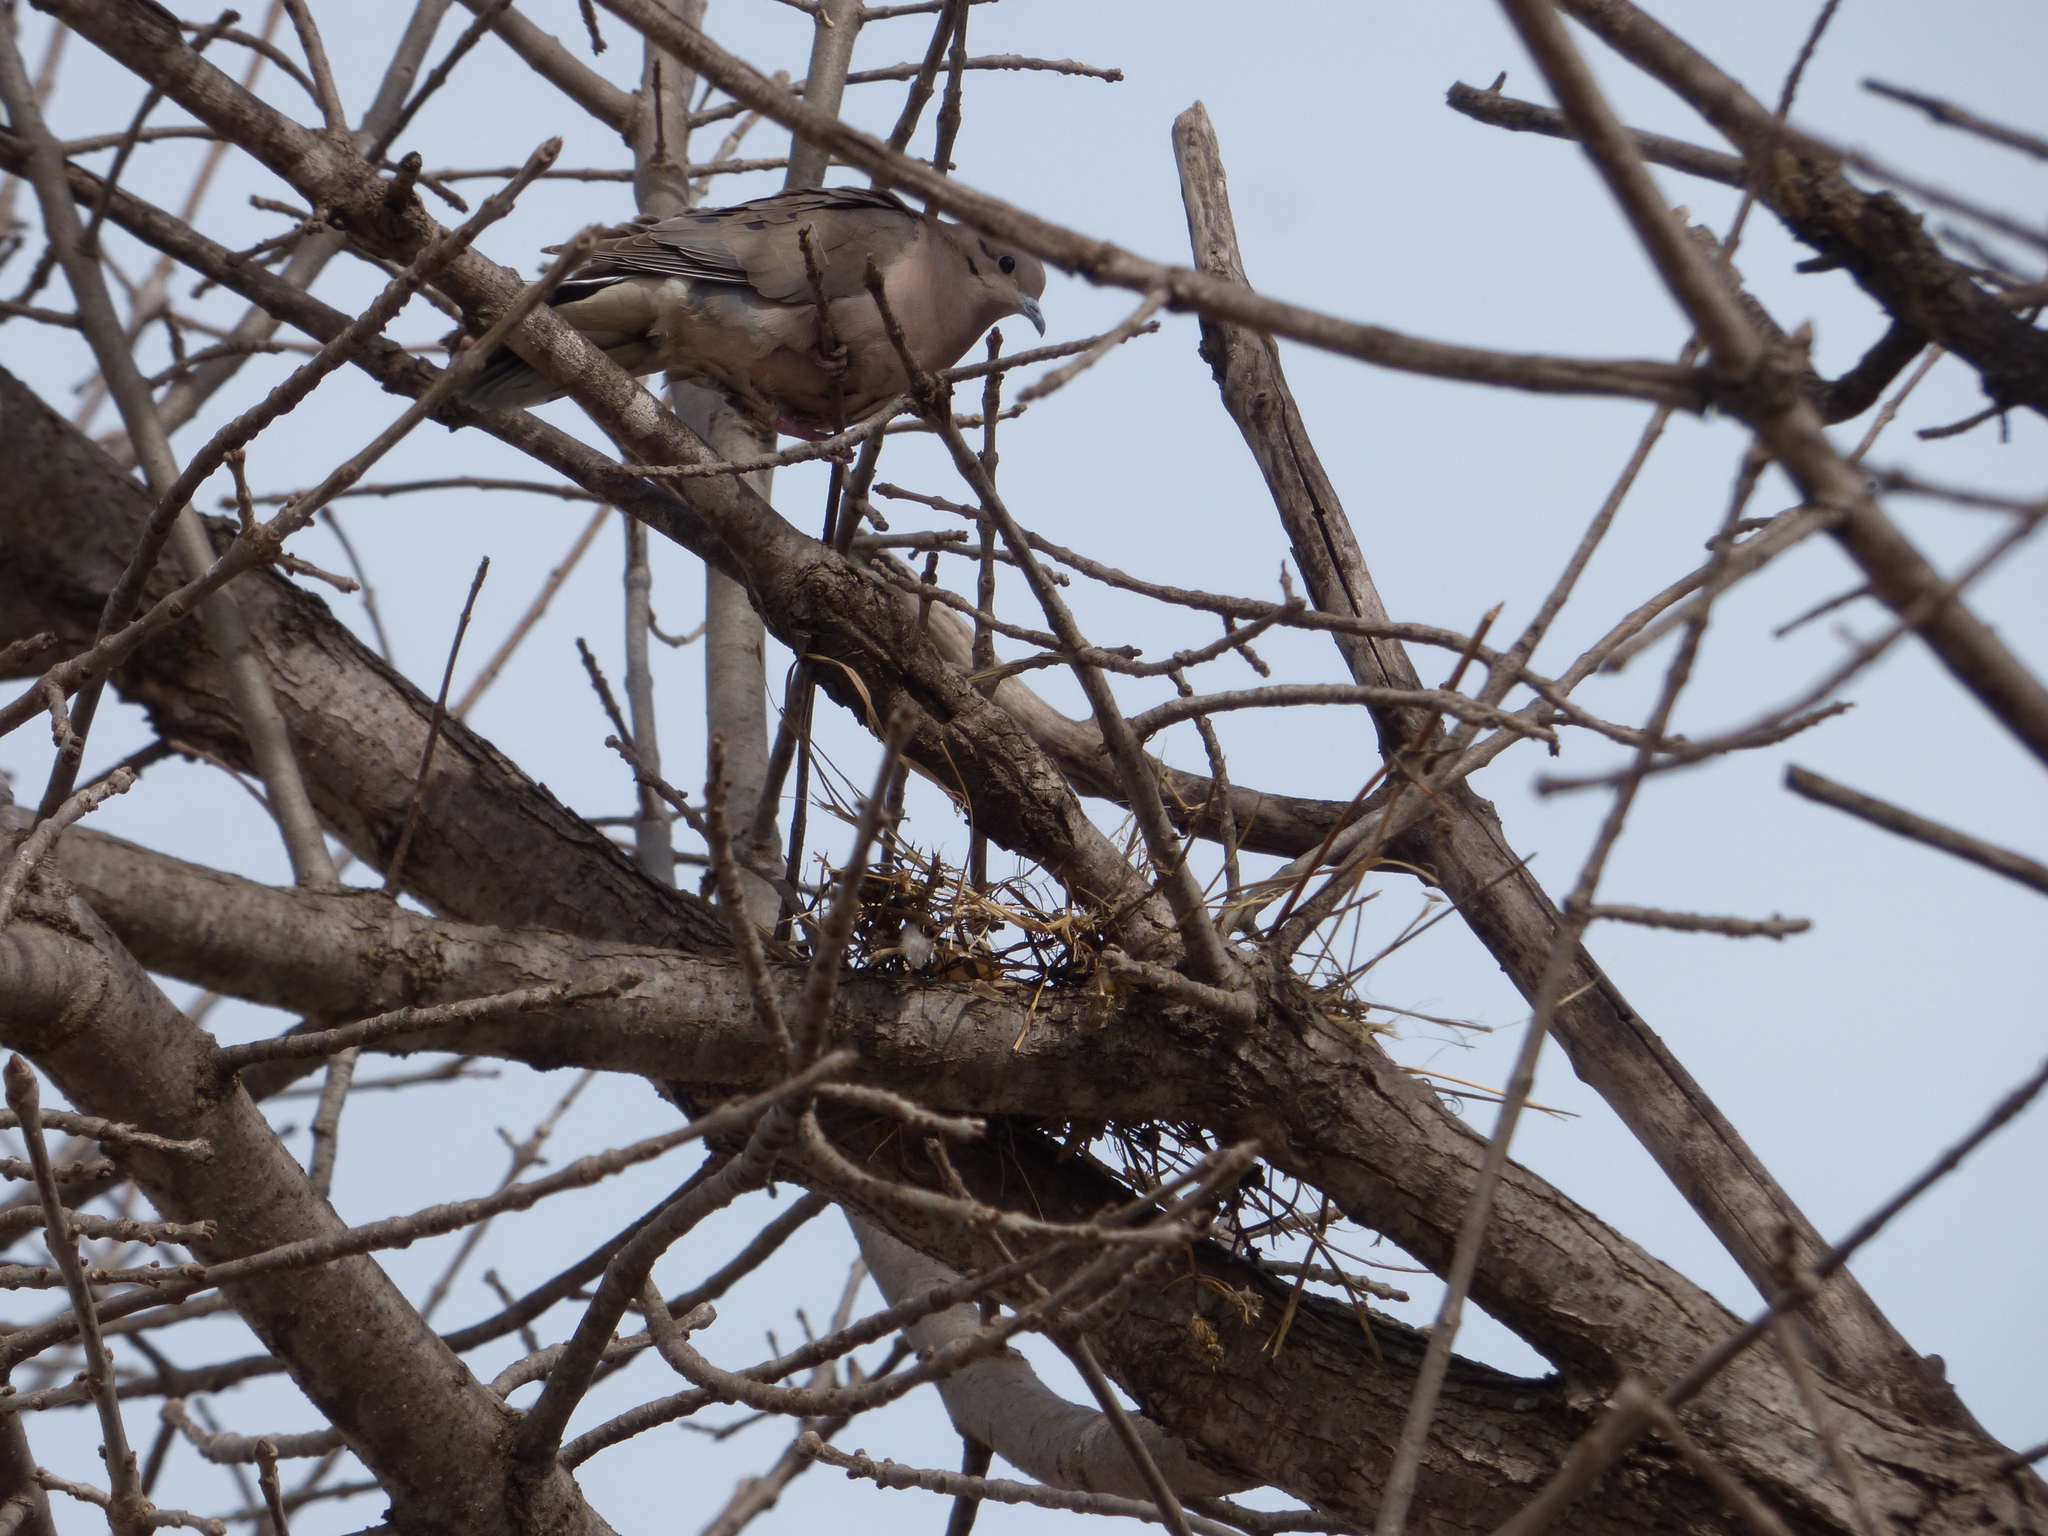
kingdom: Animalia
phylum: Chordata
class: Aves
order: Columbiformes
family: Columbidae
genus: Zenaida
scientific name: Zenaida auriculata
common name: Eared dove
